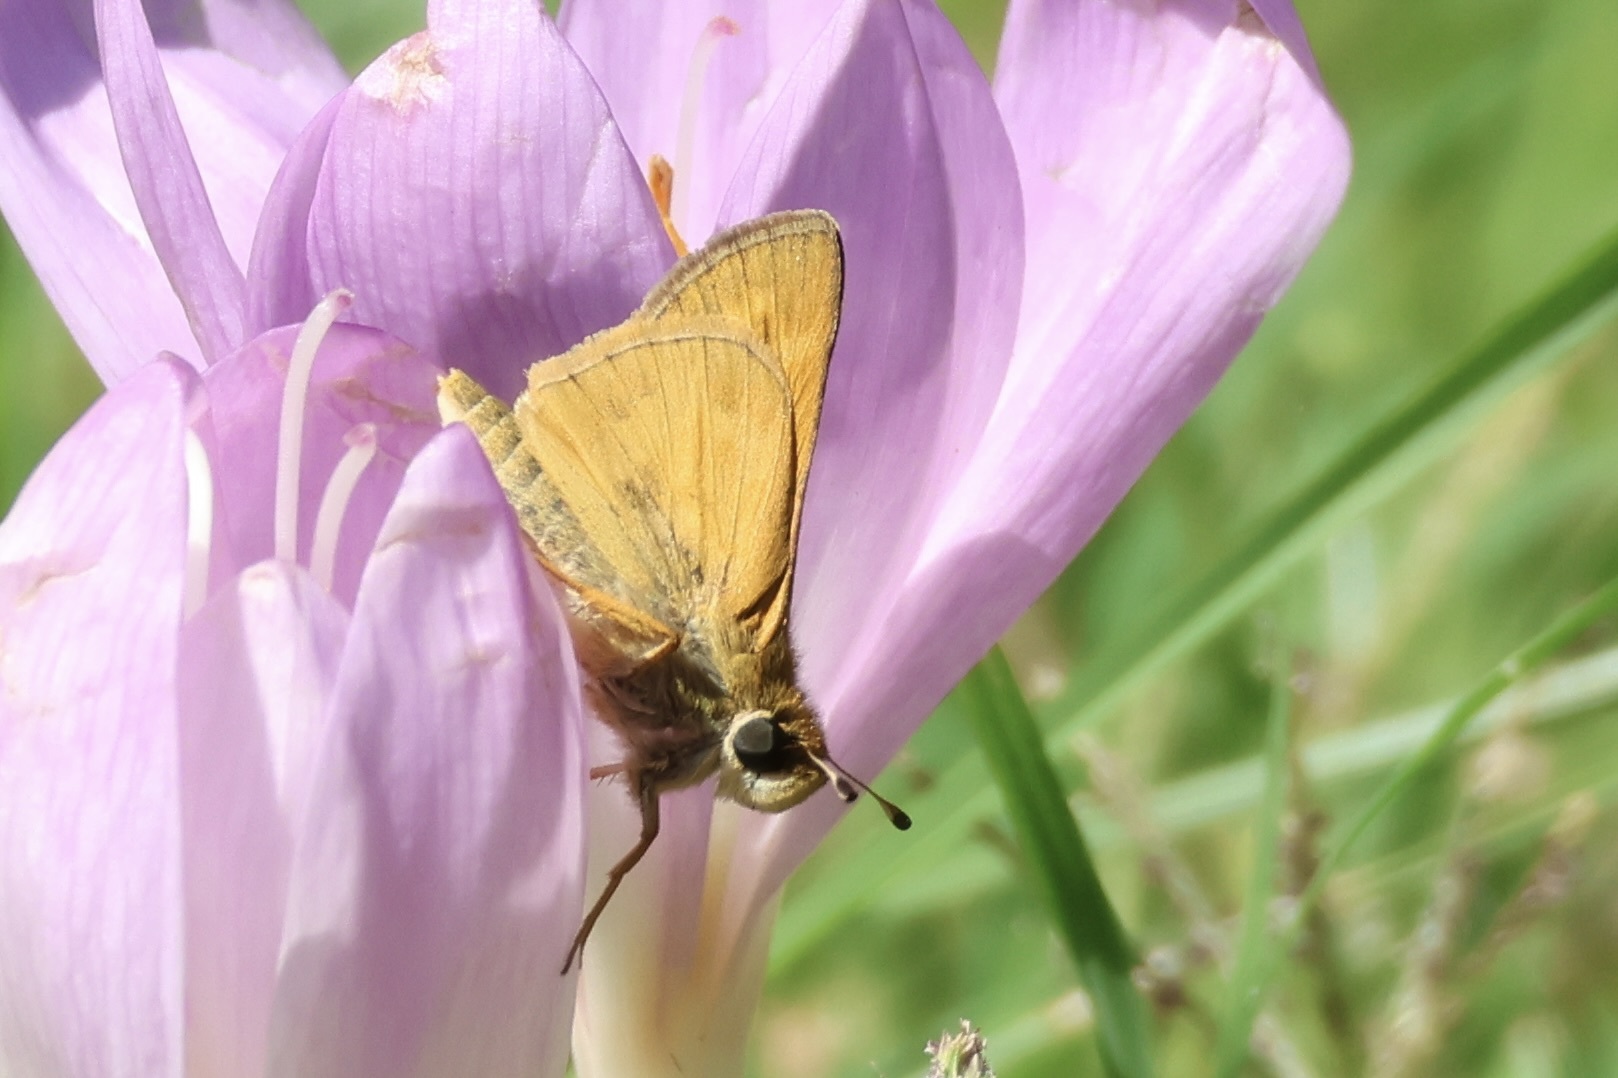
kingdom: Animalia
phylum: Arthropoda
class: Insecta
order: Lepidoptera
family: Hesperiidae
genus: Atalopedes
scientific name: Atalopedes
